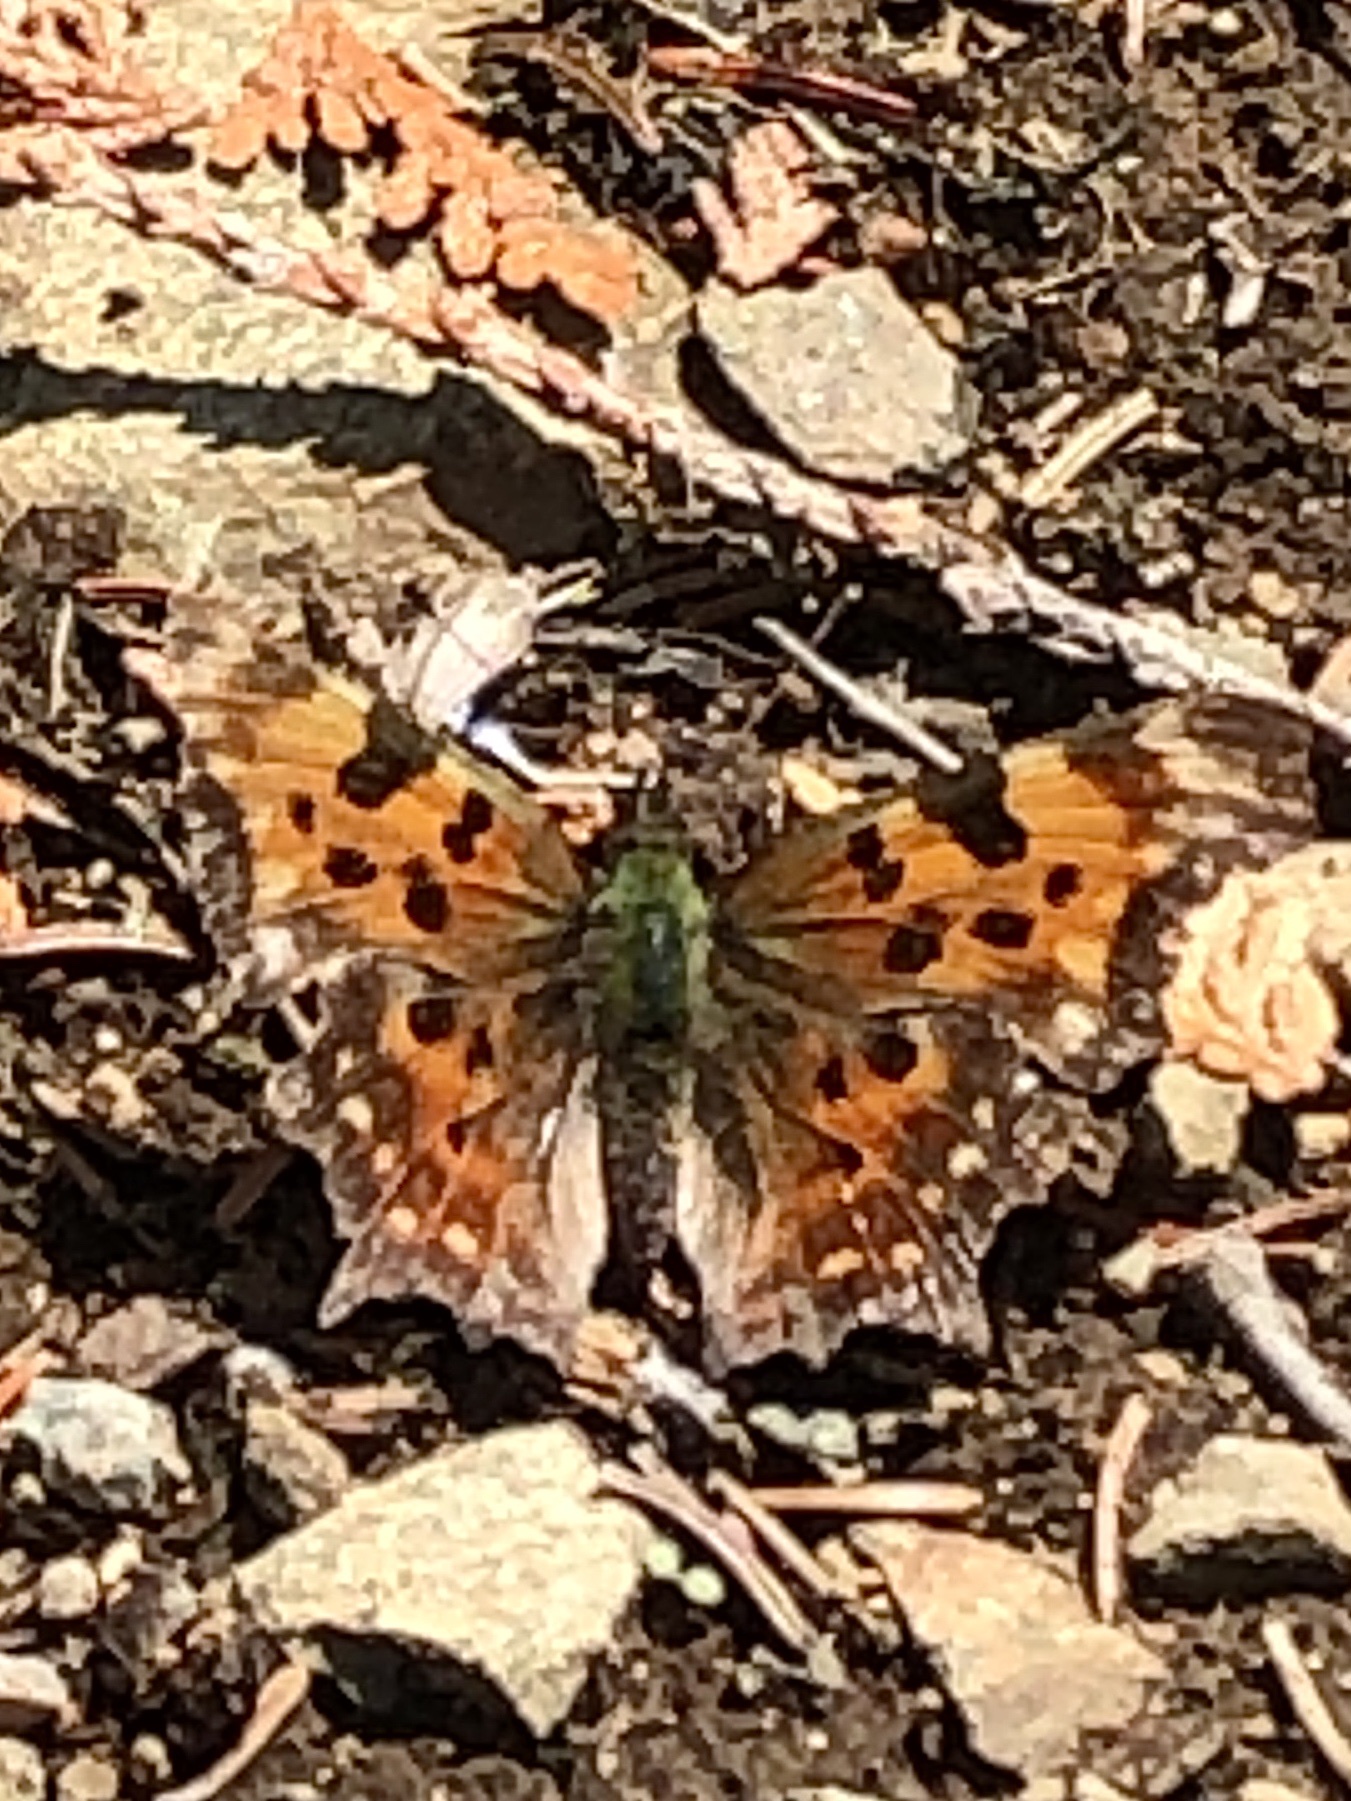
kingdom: Animalia
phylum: Arthropoda
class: Insecta
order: Lepidoptera
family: Nymphalidae
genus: Polygonia
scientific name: Polygonia faunus
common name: Green comma
